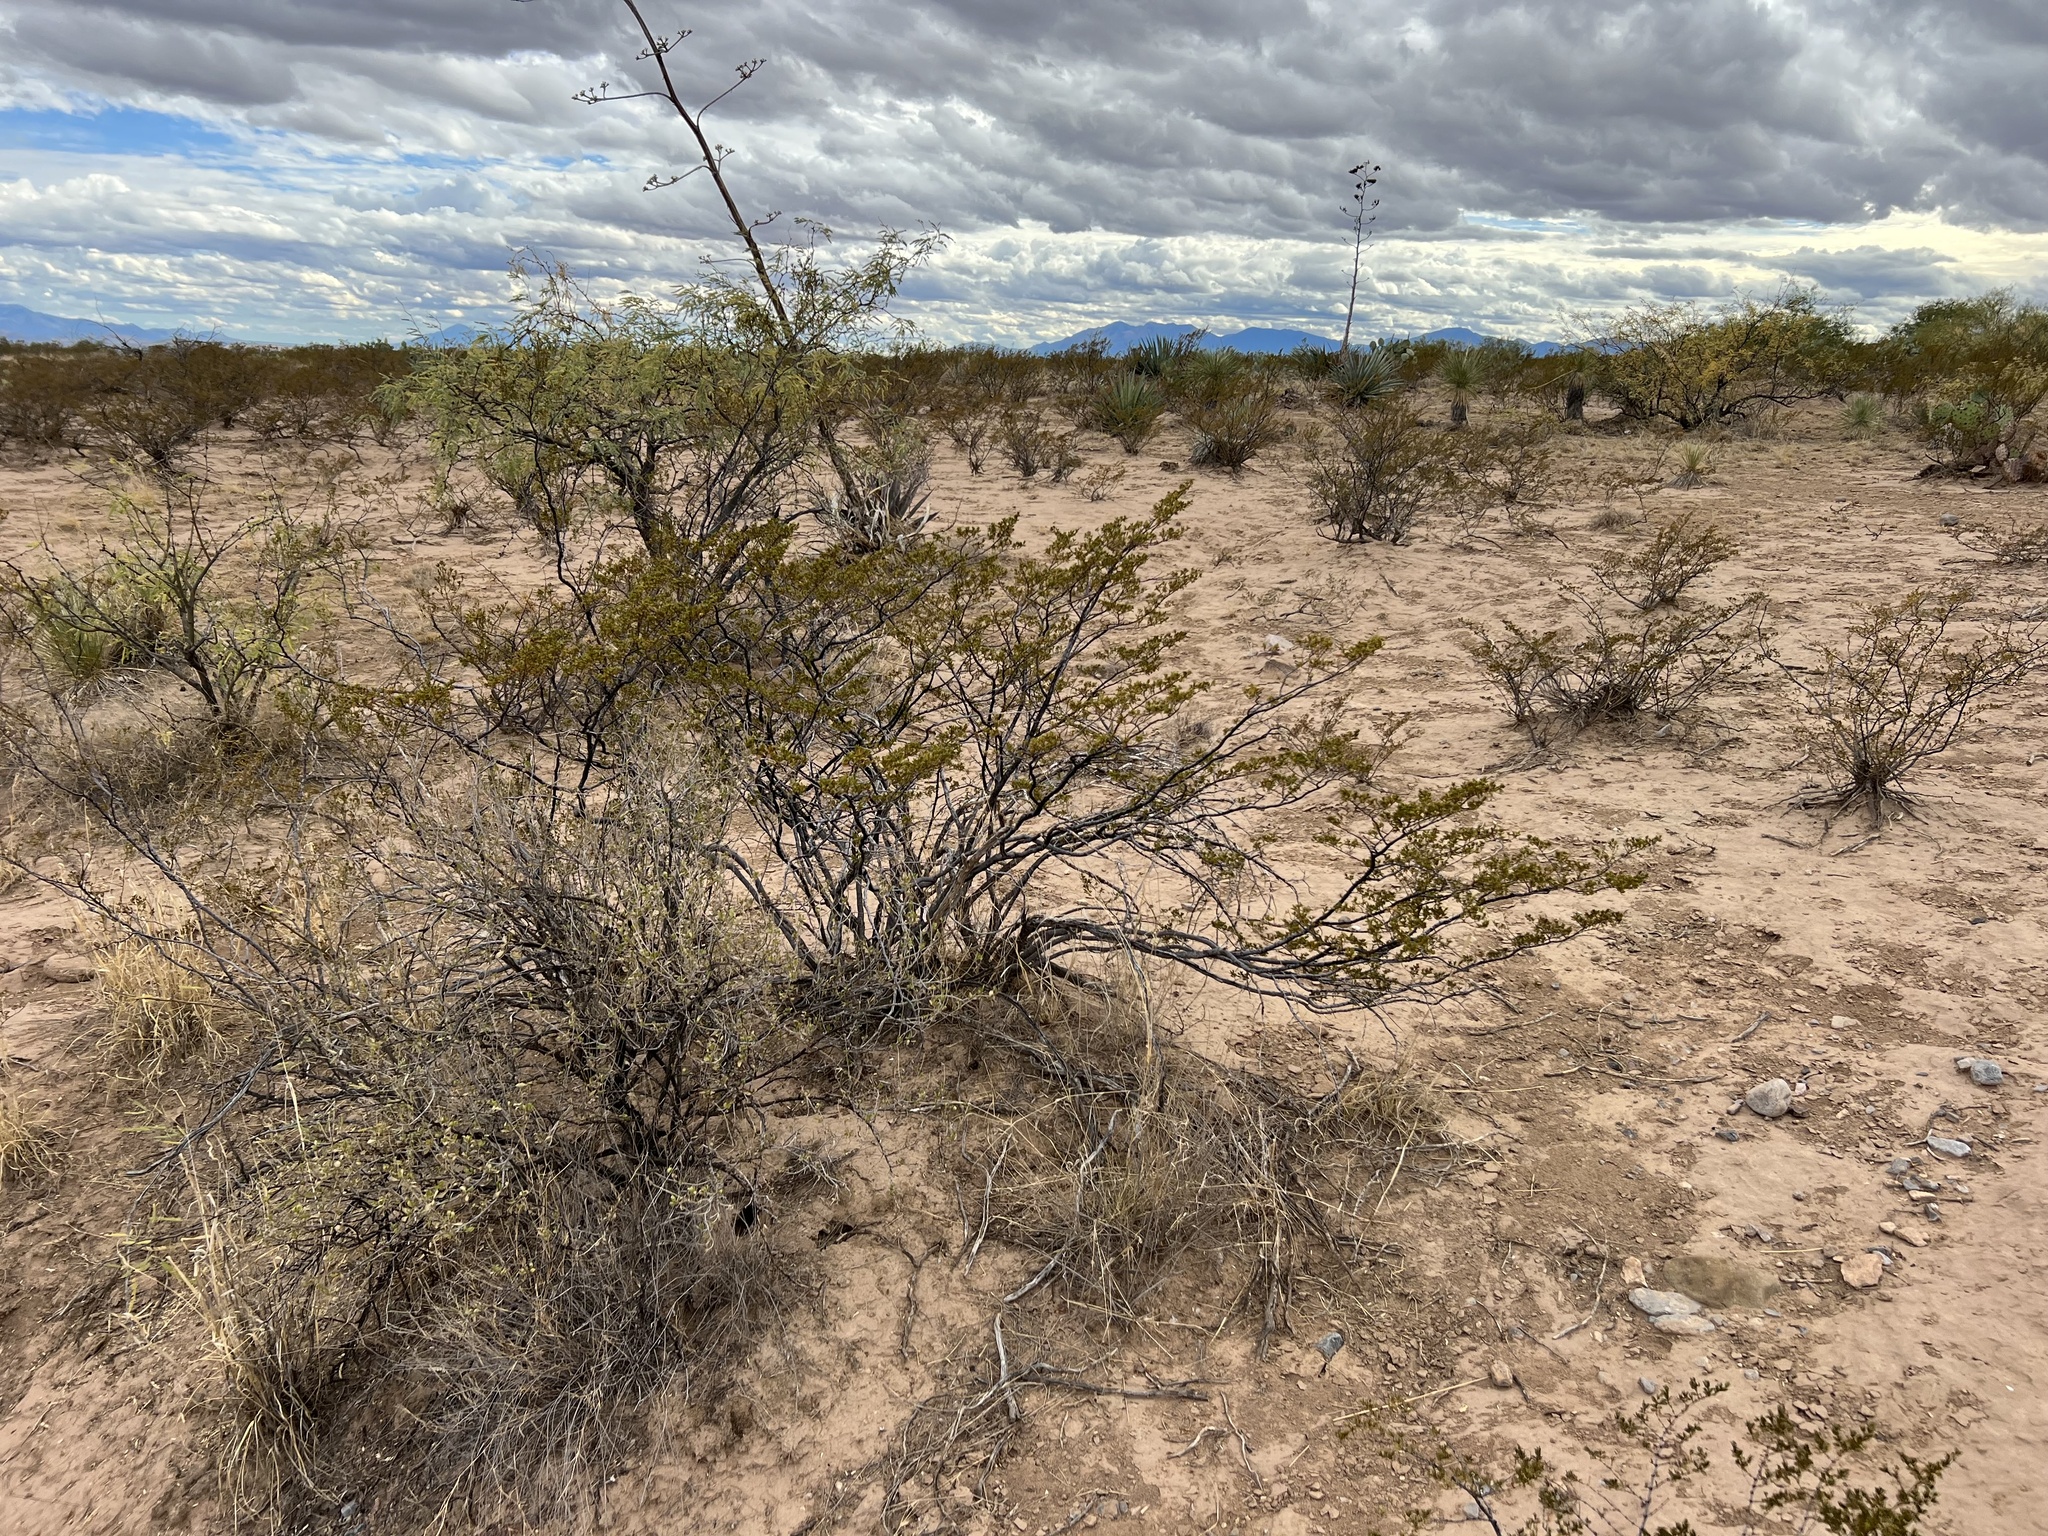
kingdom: Plantae
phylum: Tracheophyta
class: Magnoliopsida
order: Zygophyllales
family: Zygophyllaceae
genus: Larrea
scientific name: Larrea tridentata
